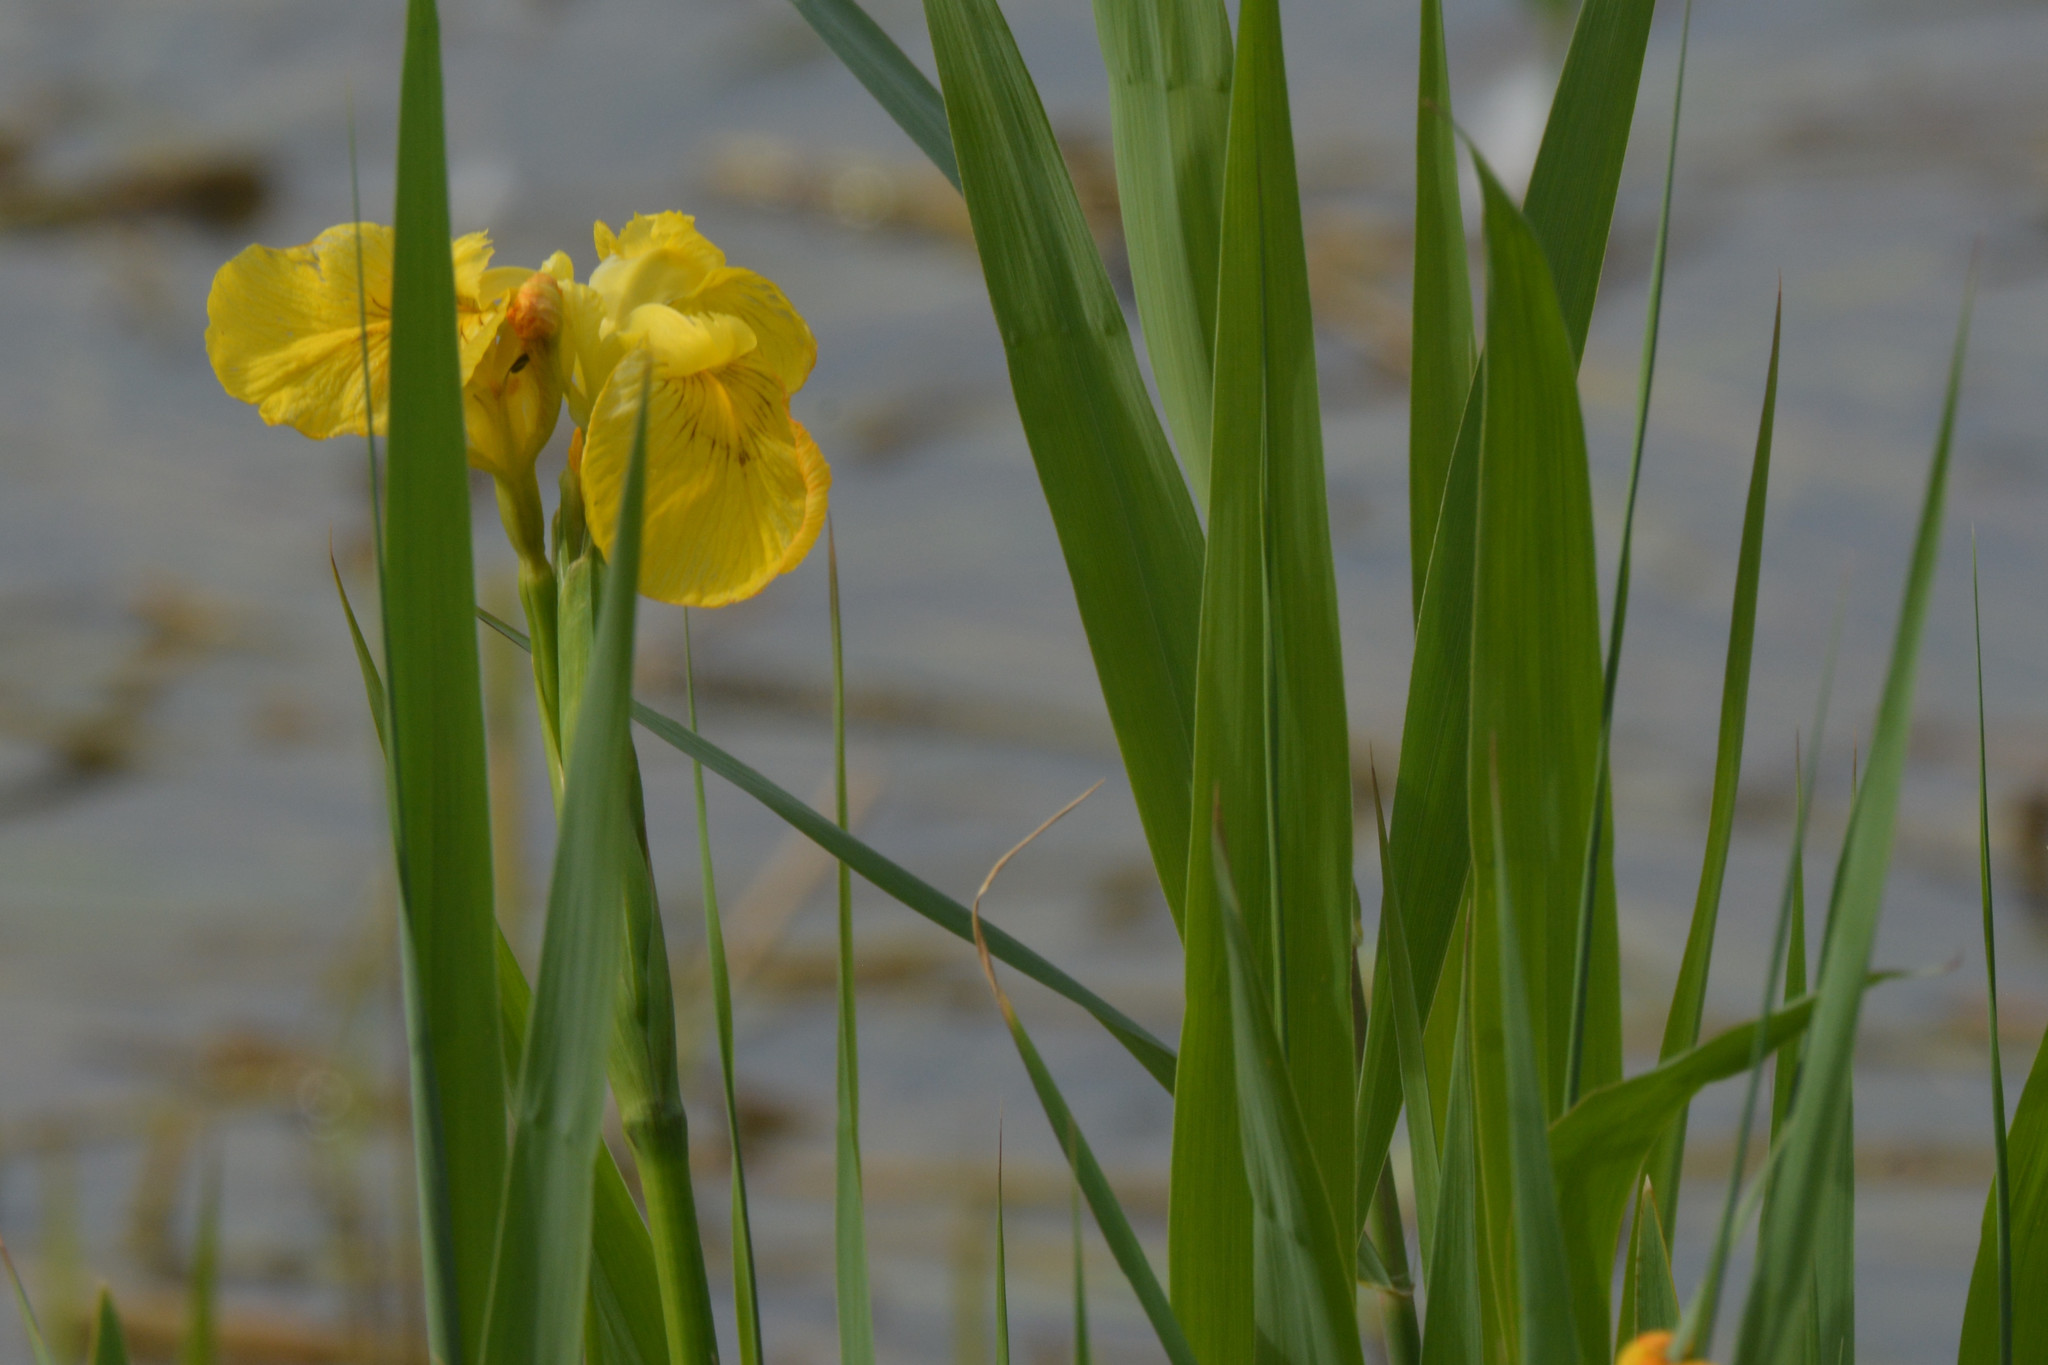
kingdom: Plantae
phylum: Tracheophyta
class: Liliopsida
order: Asparagales
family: Iridaceae
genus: Iris
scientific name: Iris pseudacorus
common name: Yellow flag
